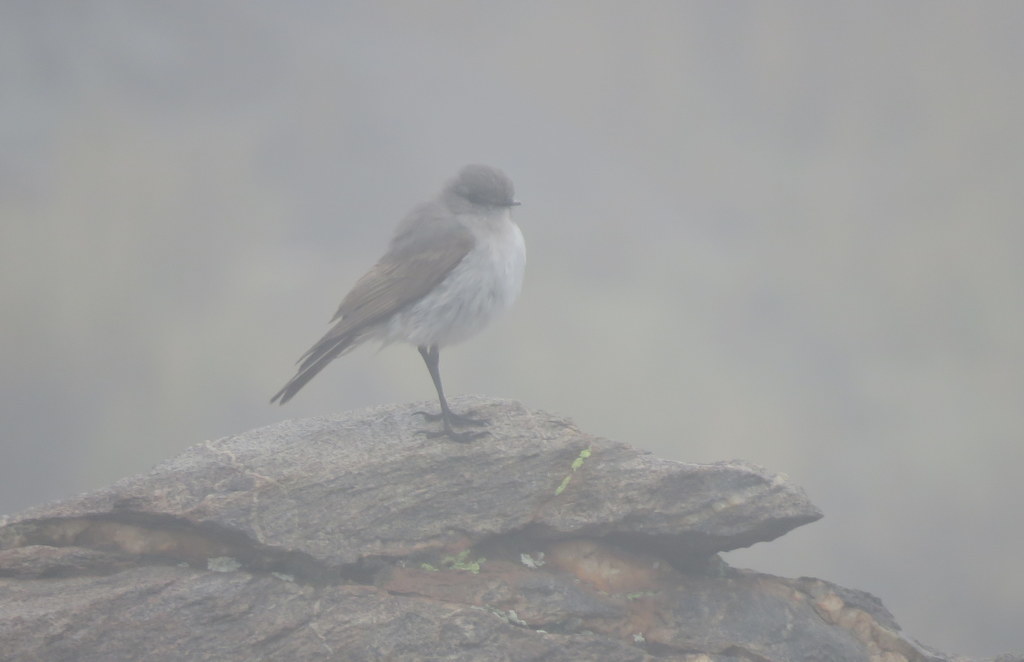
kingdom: Animalia
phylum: Chordata
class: Aves
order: Passeriformes
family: Tyrannidae
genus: Muscisaxicola
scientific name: Muscisaxicola cinereus
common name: Cinereous ground tyrant
